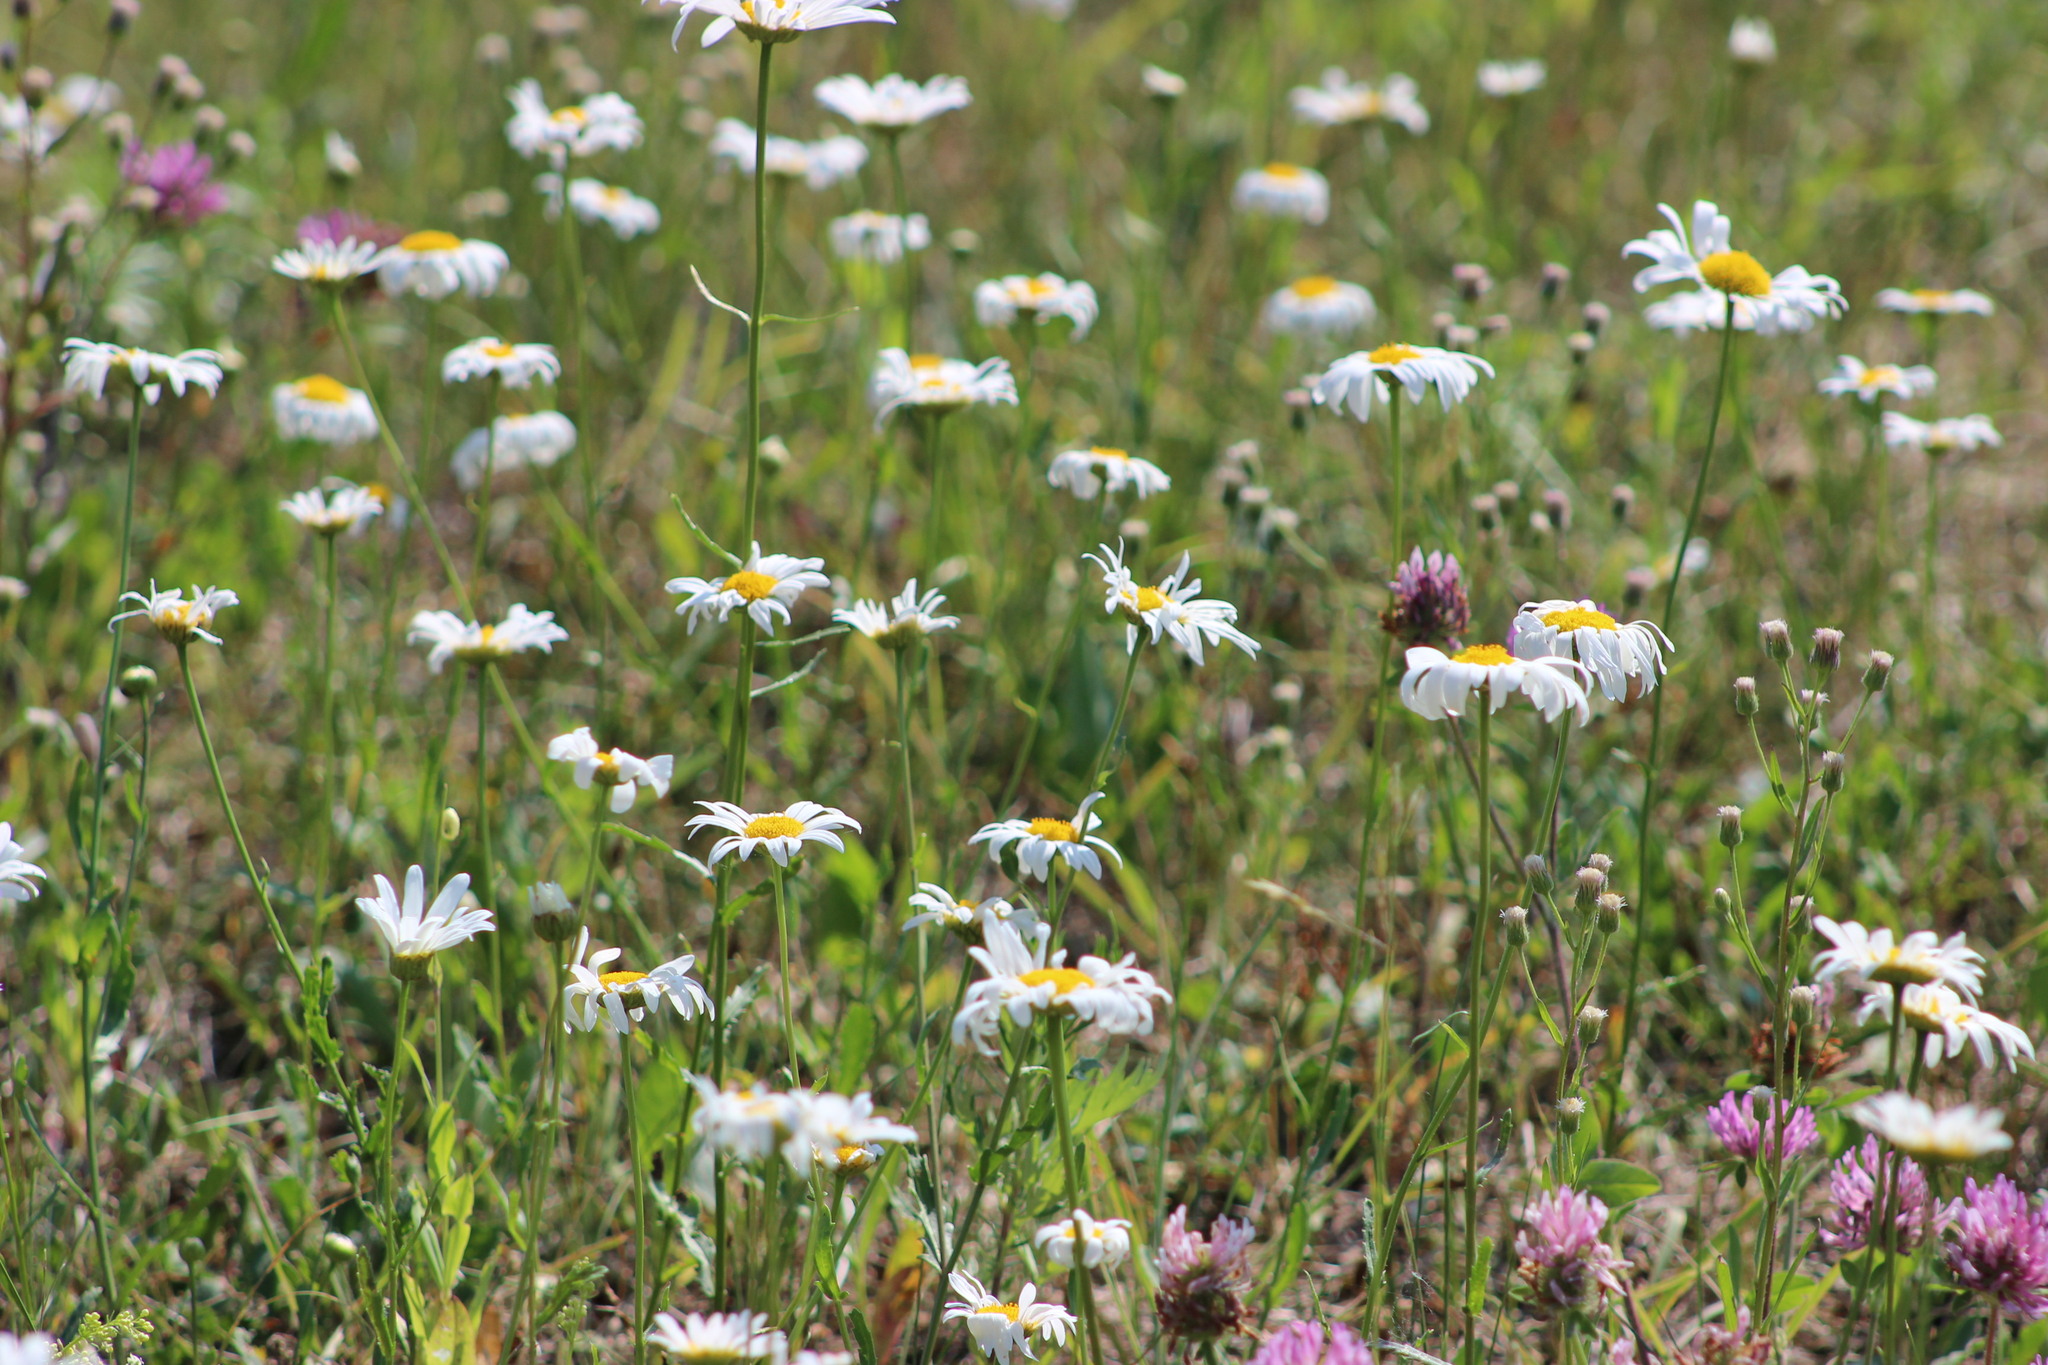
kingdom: Plantae
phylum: Tracheophyta
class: Magnoliopsida
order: Asterales
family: Asteraceae
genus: Leucanthemum
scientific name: Leucanthemum ircutianum
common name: Daisy
